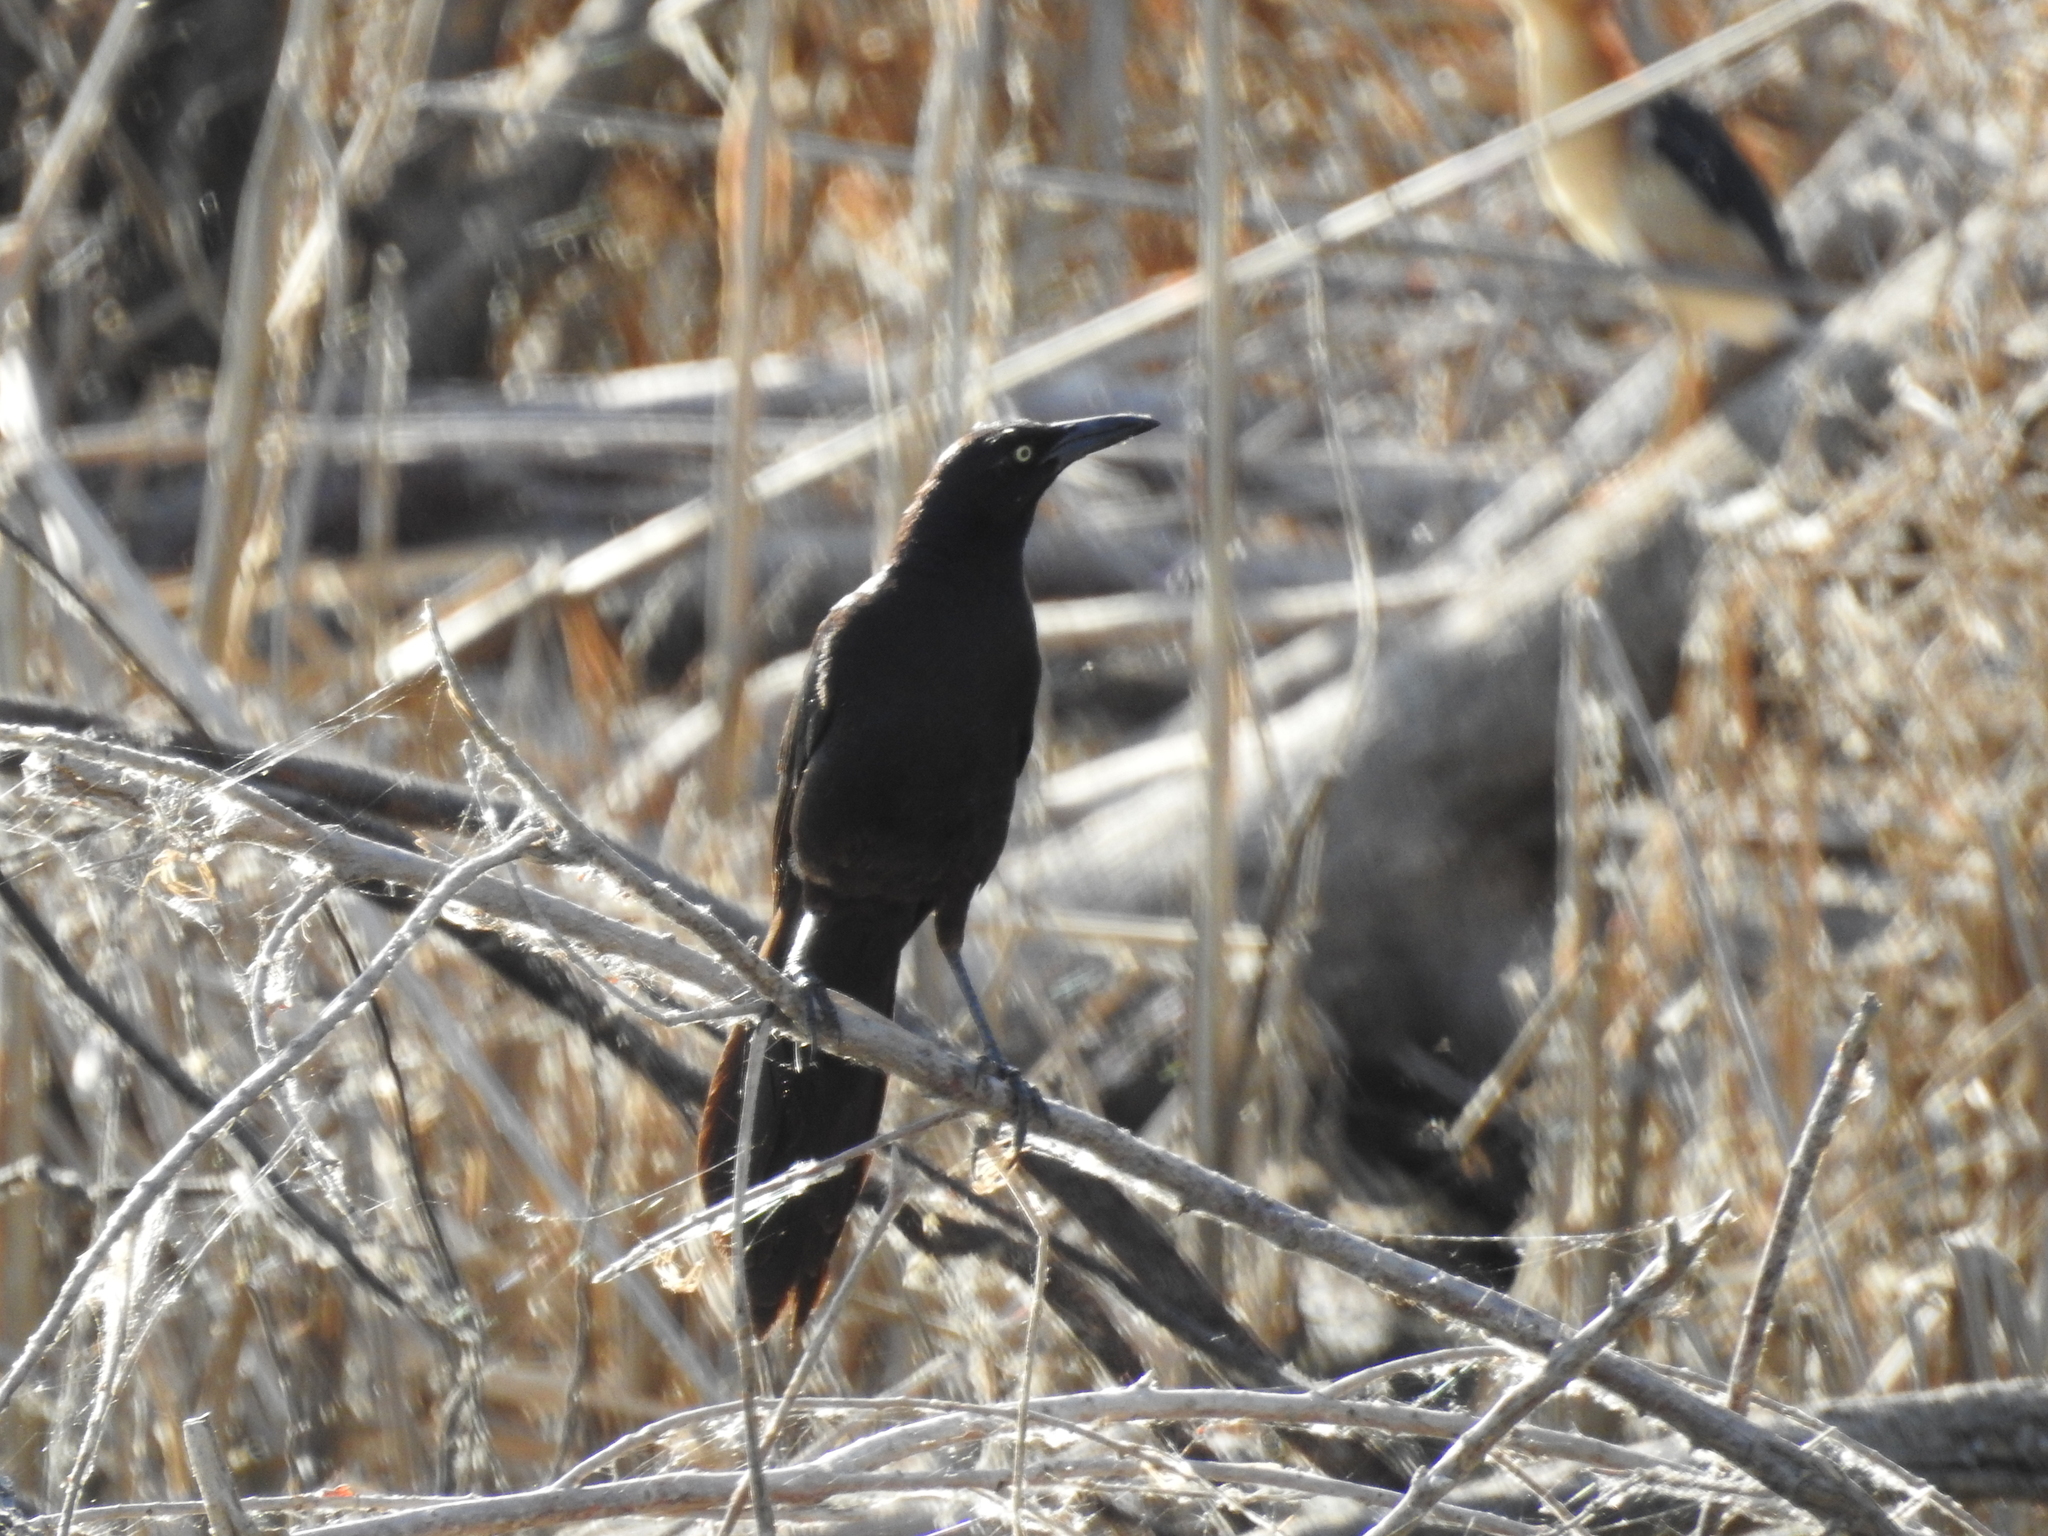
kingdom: Animalia
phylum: Chordata
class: Aves
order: Passeriformes
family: Icteridae
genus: Quiscalus
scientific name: Quiscalus mexicanus
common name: Great-tailed grackle
